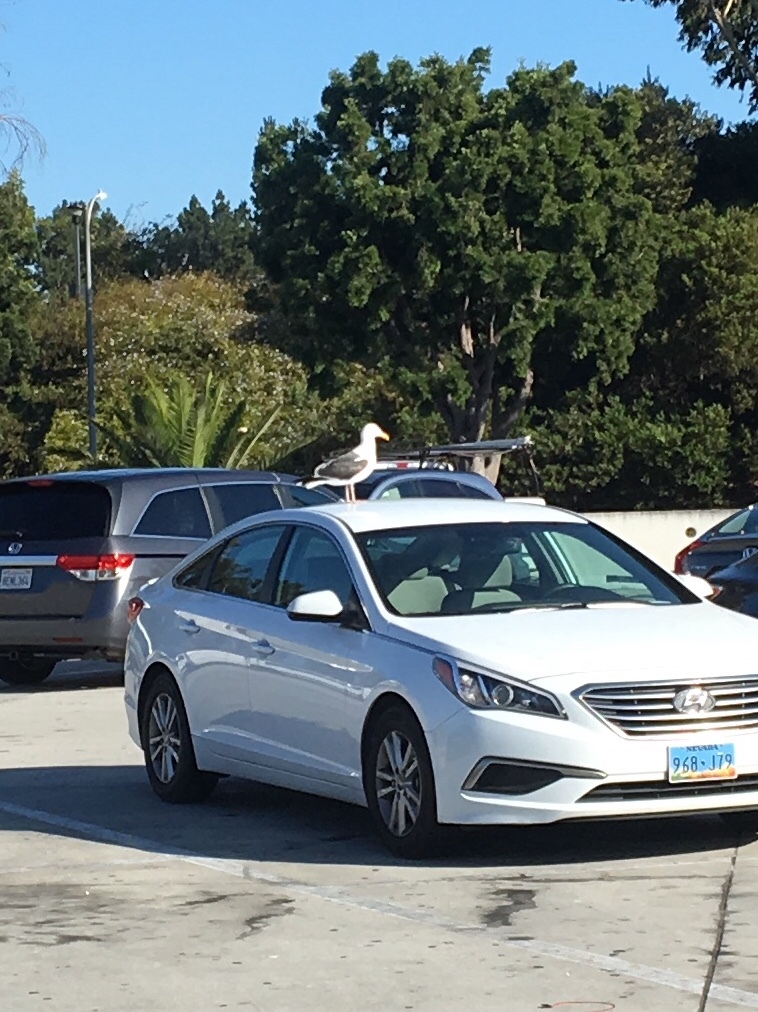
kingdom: Animalia
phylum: Chordata
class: Aves
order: Charadriiformes
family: Laridae
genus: Larus
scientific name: Larus occidentalis
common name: Western gull
